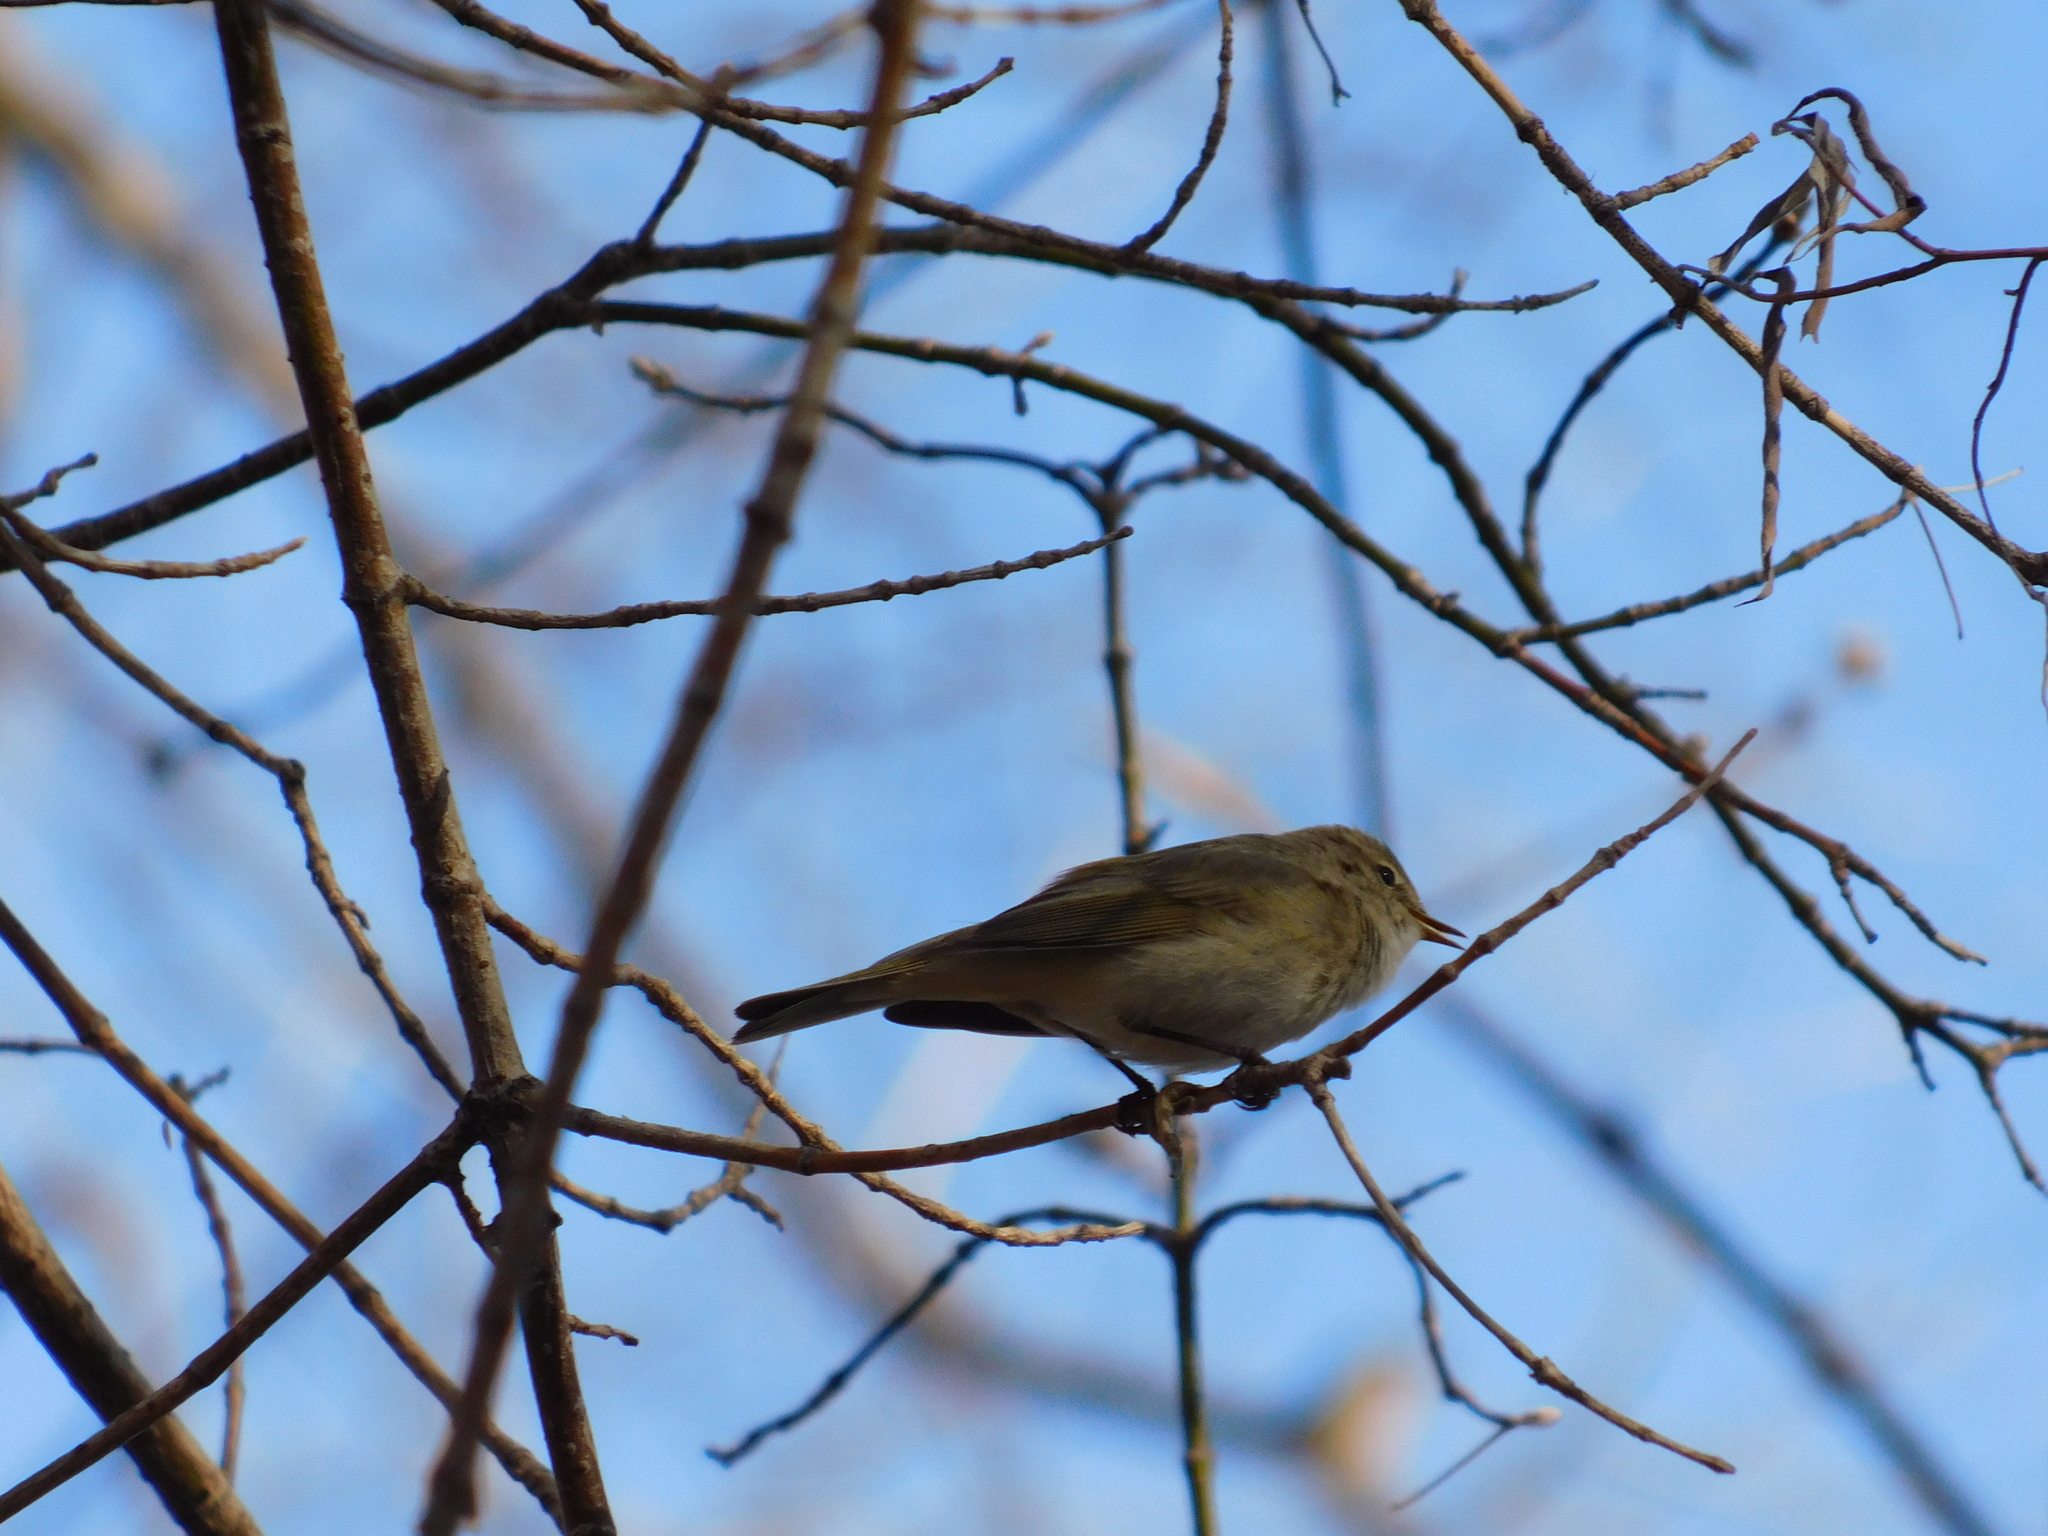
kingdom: Animalia
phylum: Chordata
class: Aves
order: Passeriformes
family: Phylloscopidae
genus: Phylloscopus
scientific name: Phylloscopus collybita
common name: Common chiffchaff
